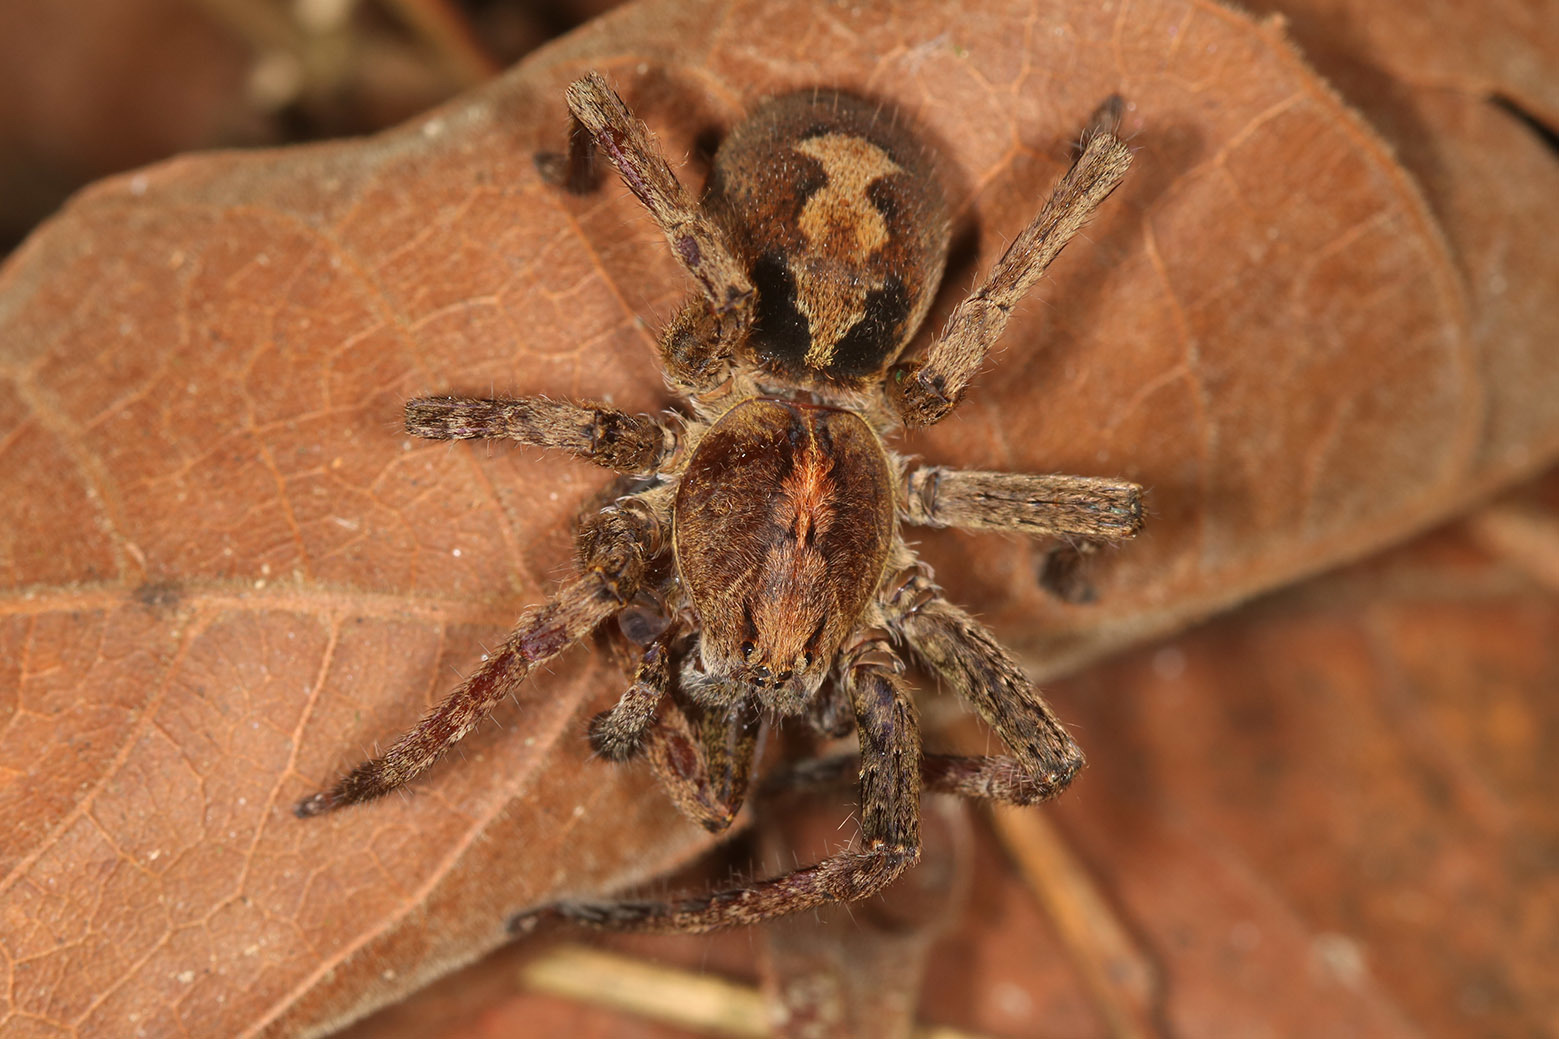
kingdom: Animalia
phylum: Arthropoda
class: Arachnida
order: Araneae
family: Ctenidae
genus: Ctenus
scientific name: Ctenus ornatus
